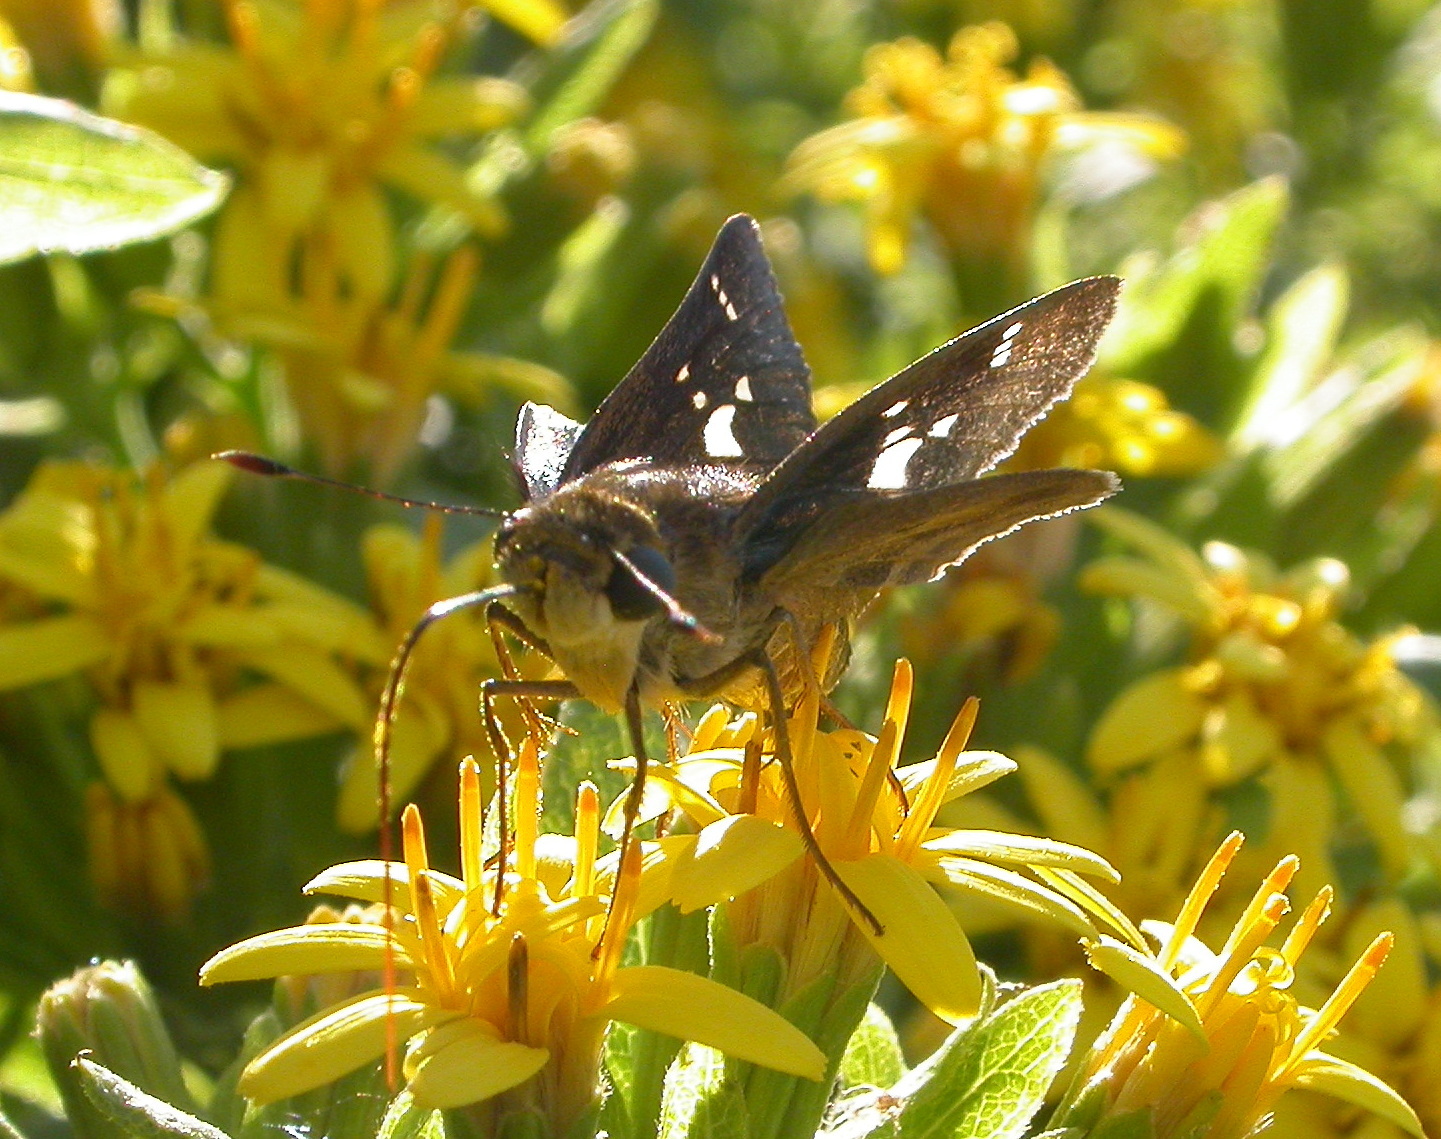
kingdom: Animalia
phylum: Arthropoda
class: Insecta
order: Lepidoptera
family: Hesperiidae
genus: Nyctelius
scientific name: Nyctelius nyctelius
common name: Violet-banded skipper
